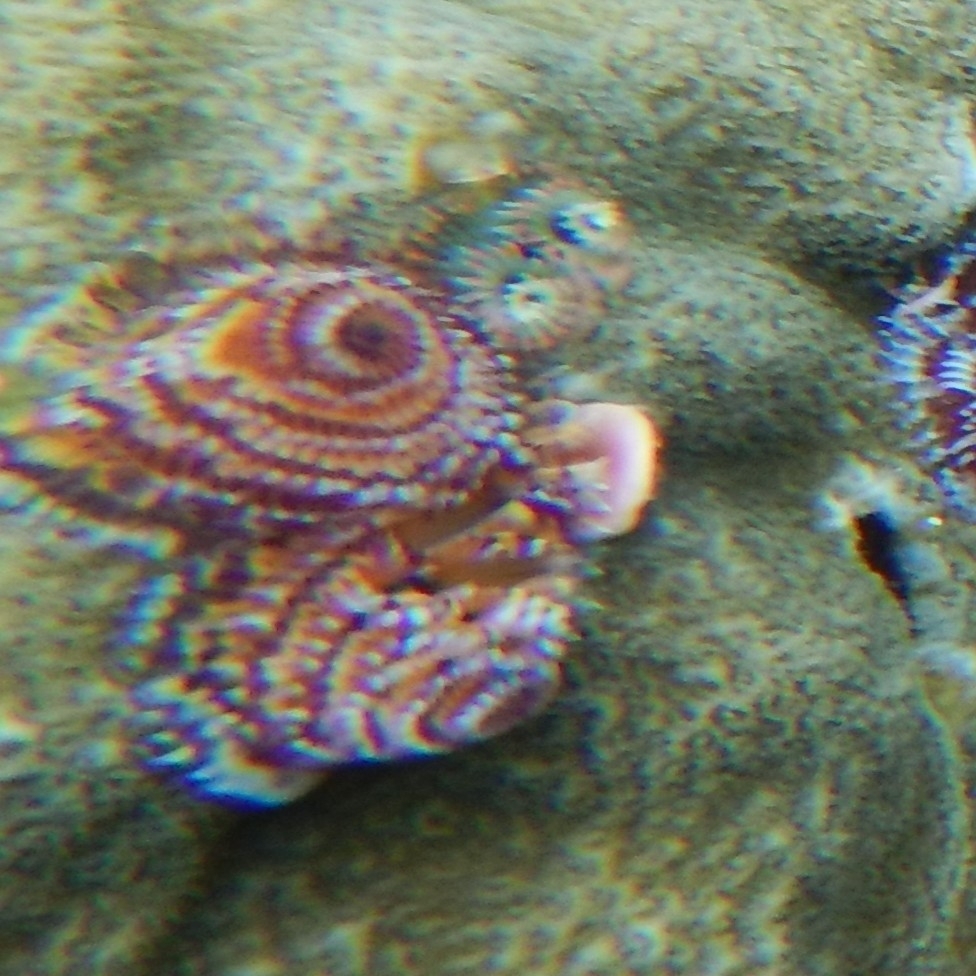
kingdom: Animalia
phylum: Annelida
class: Polychaeta
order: Sabellida
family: Serpulidae
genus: Spirobranchus
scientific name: Spirobranchus giganteus
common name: Christmas tree worm
